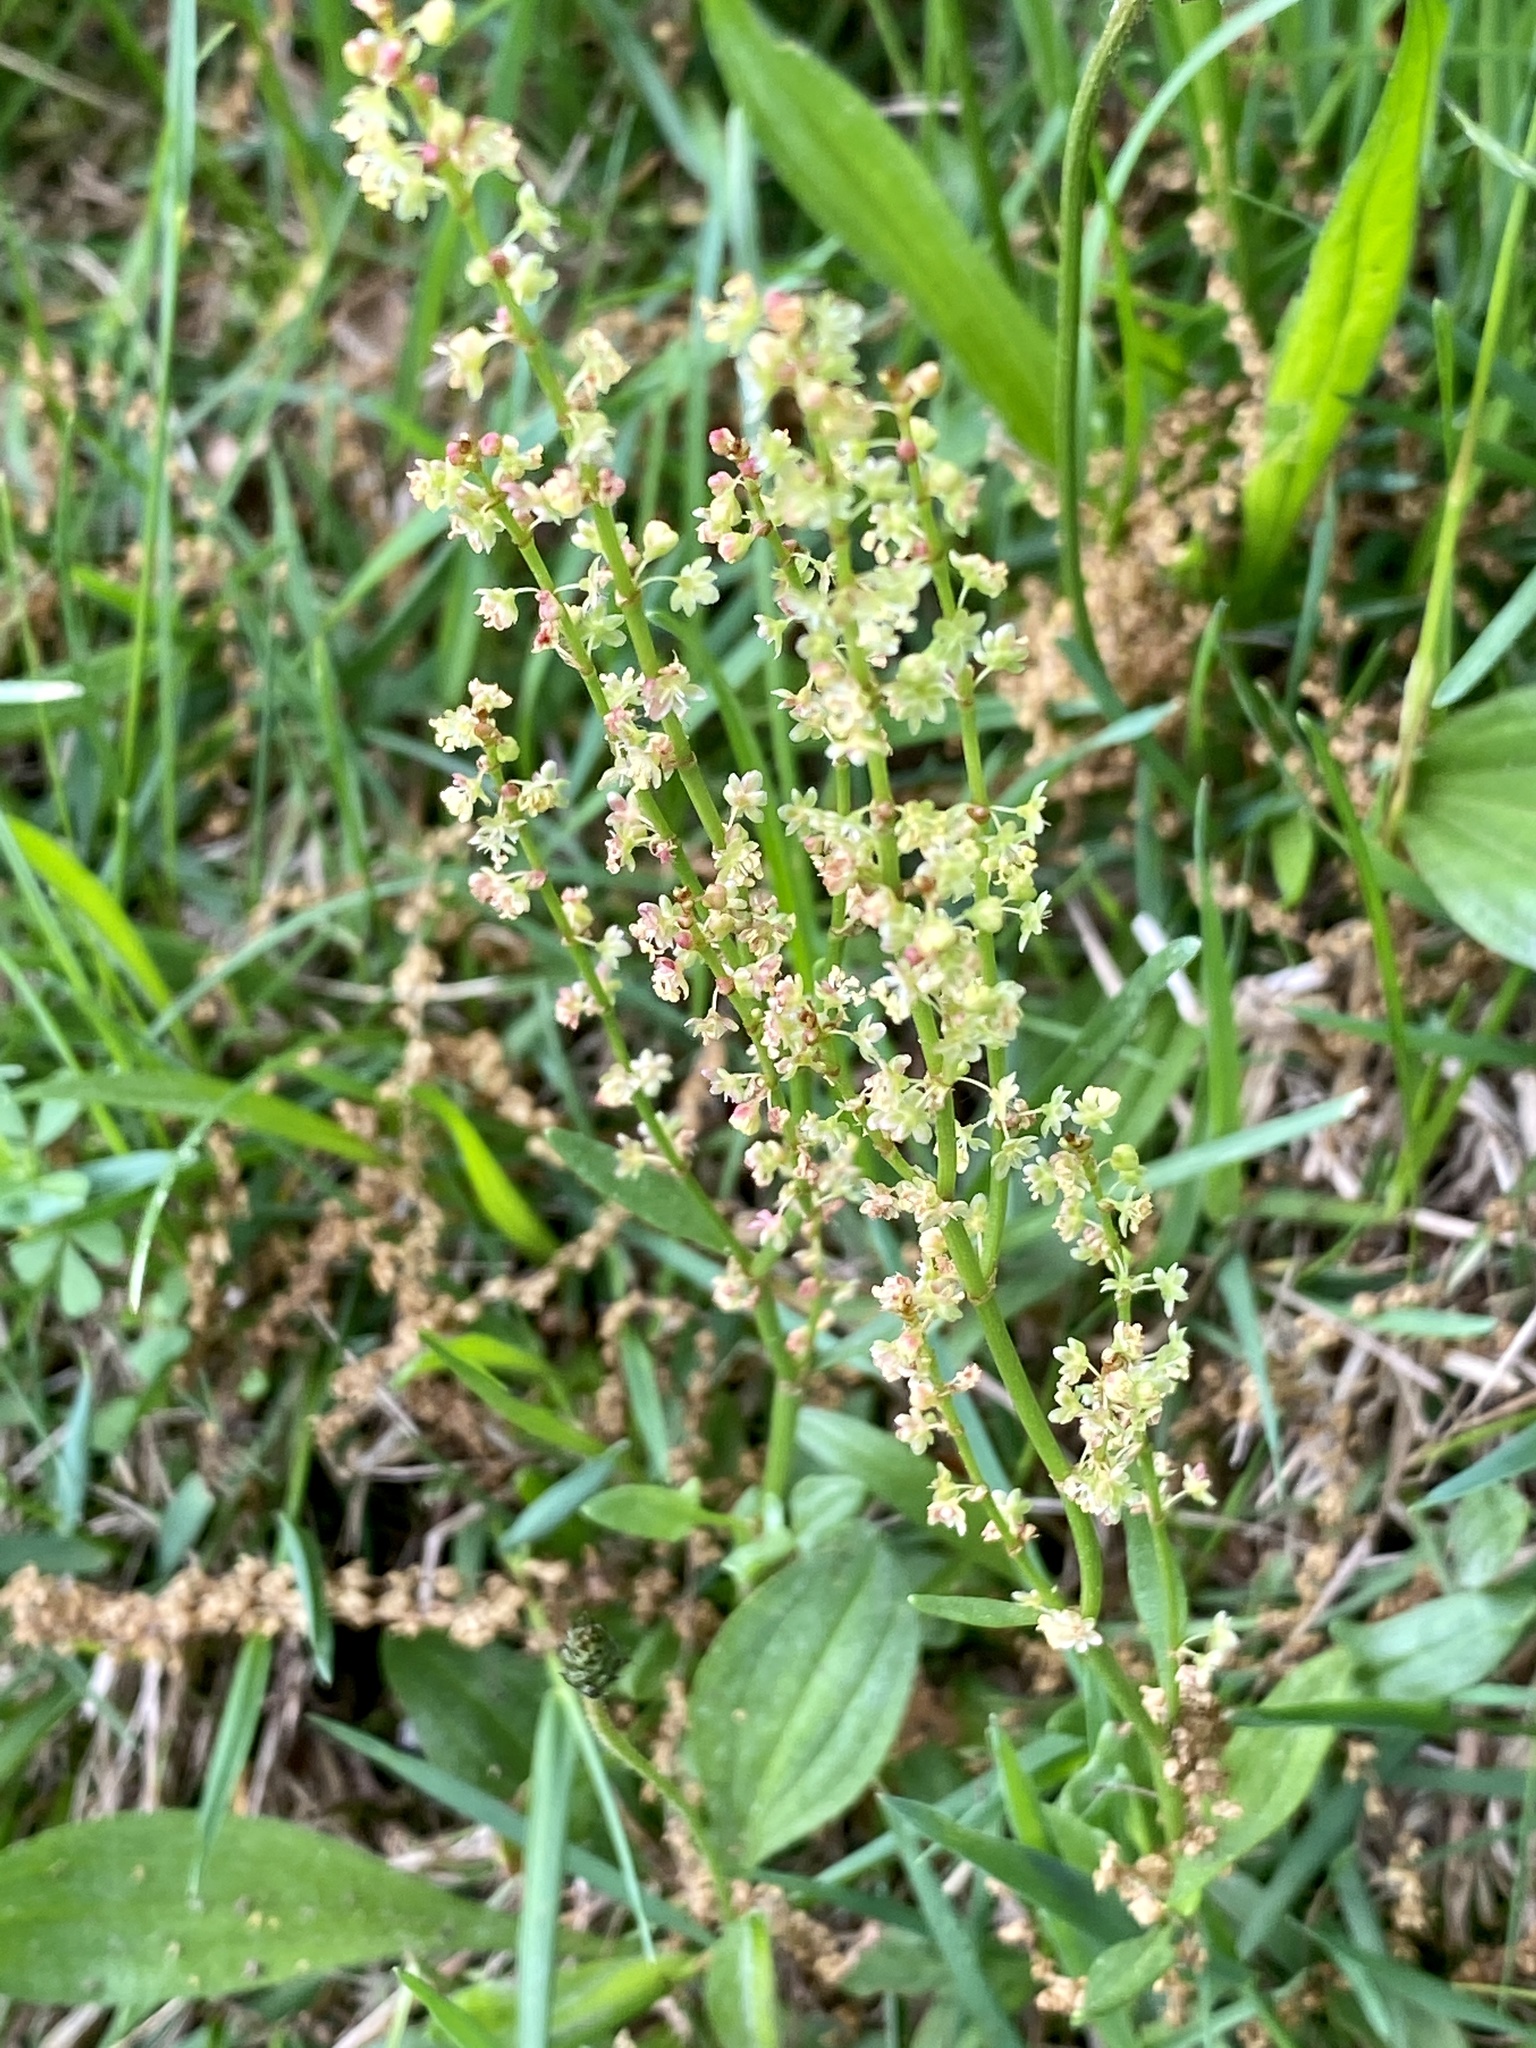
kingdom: Plantae
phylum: Tracheophyta
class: Magnoliopsida
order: Caryophyllales
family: Polygonaceae
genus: Rumex
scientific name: Rumex acetosella
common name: Common sheep sorrel
